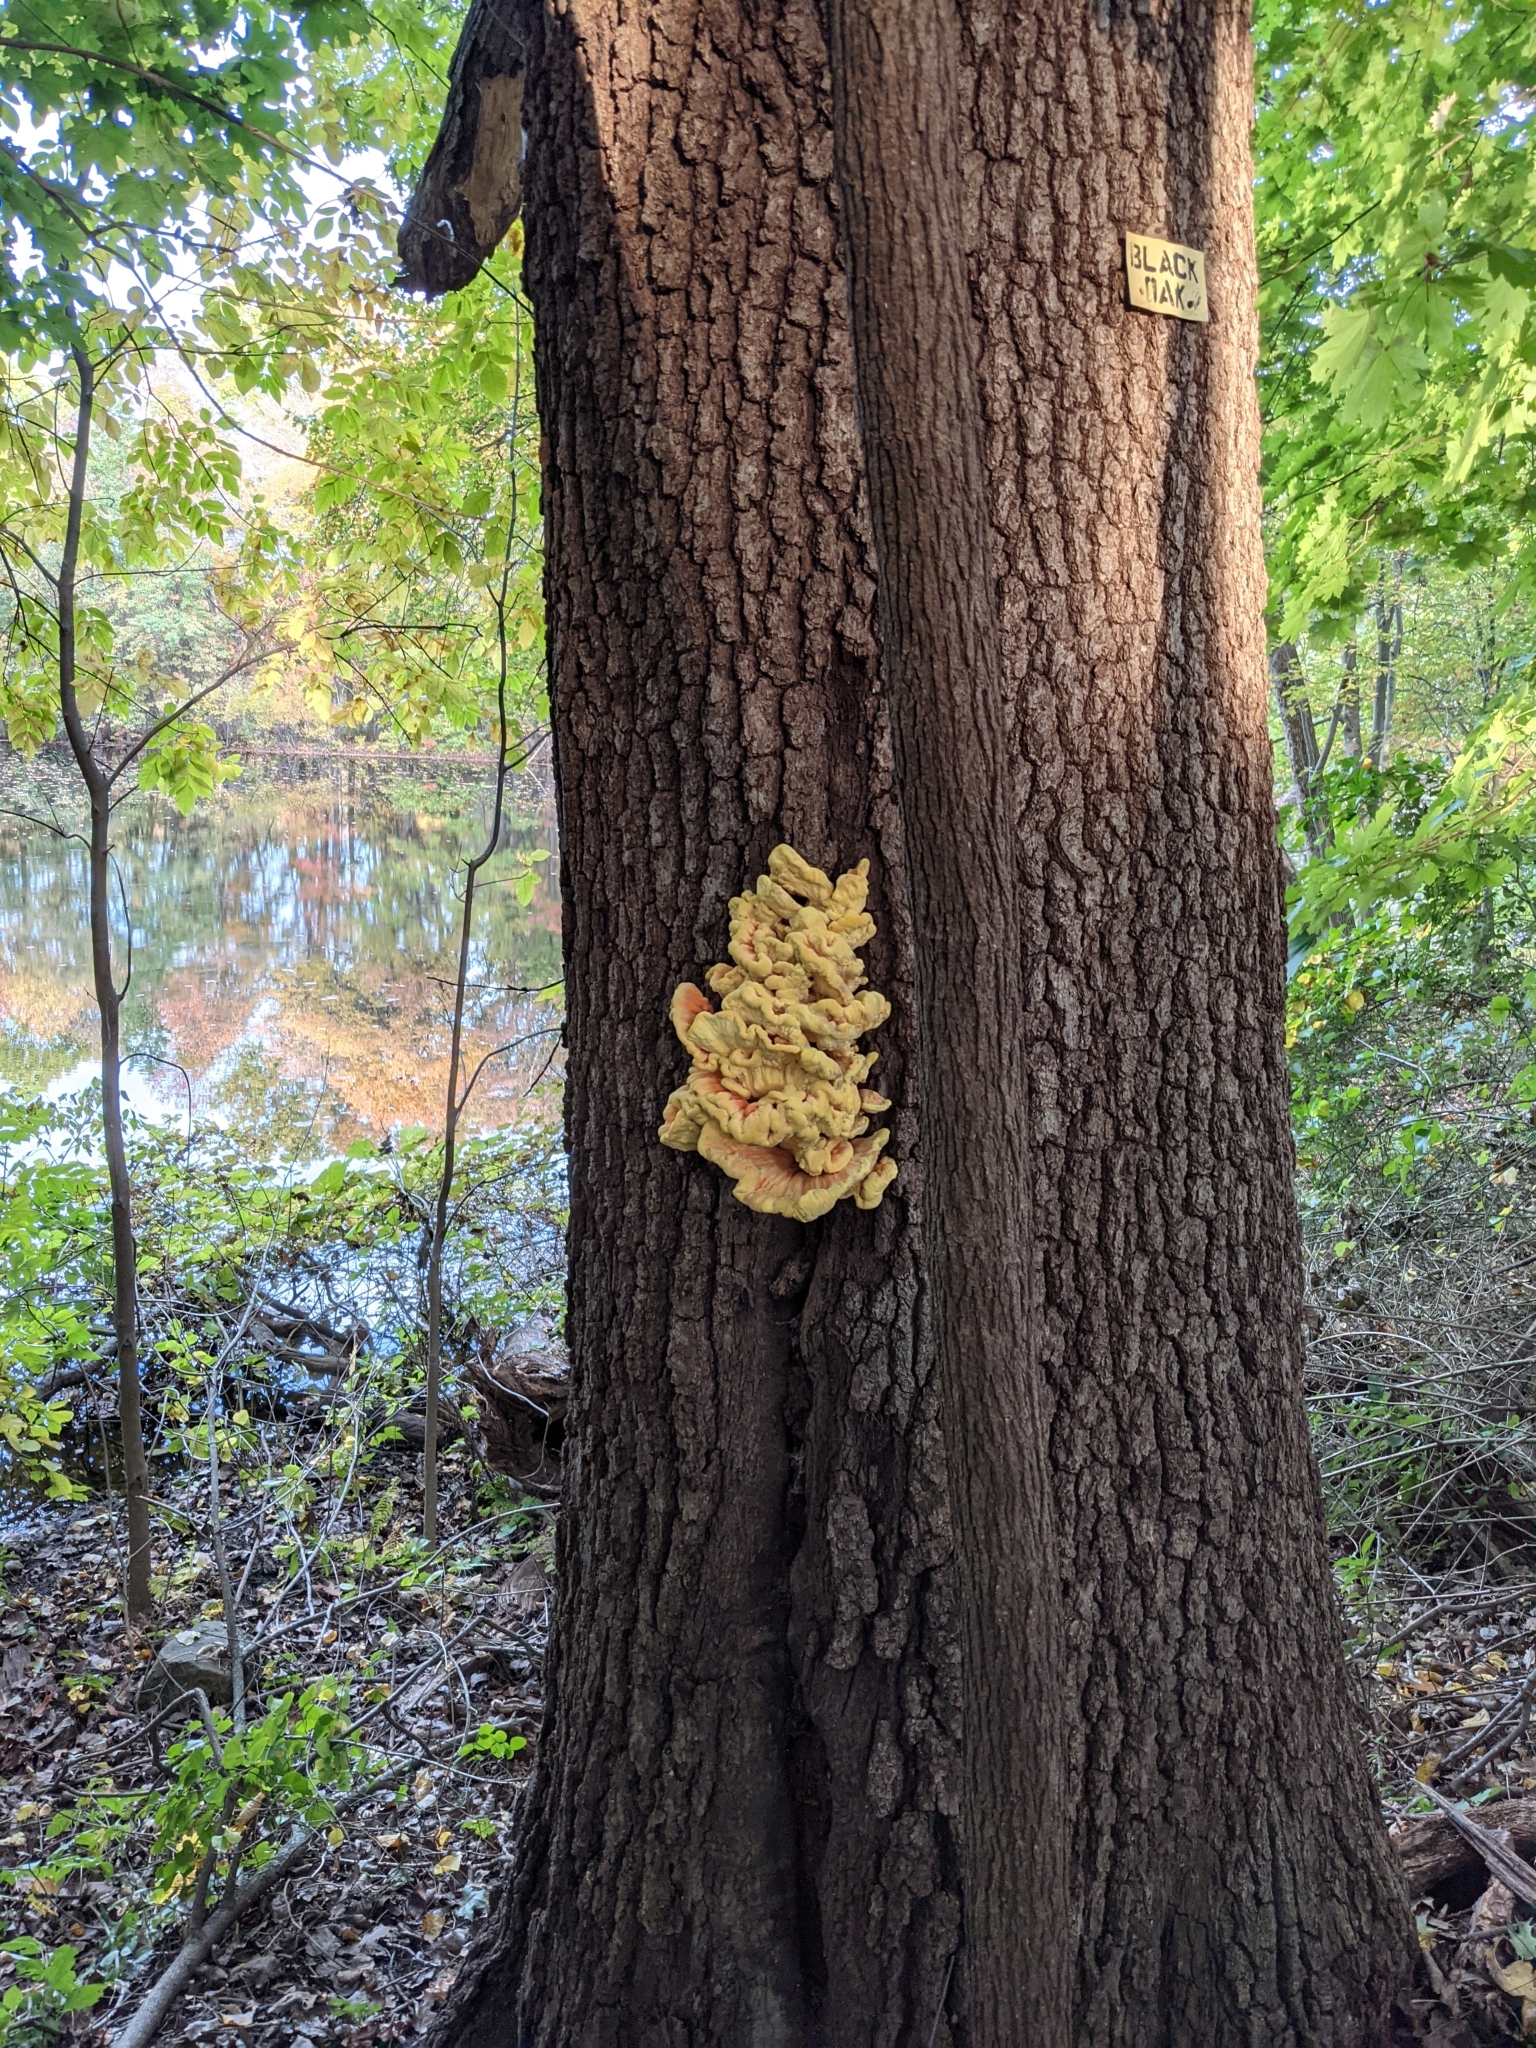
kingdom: Fungi
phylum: Basidiomycota
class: Agaricomycetes
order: Polyporales
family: Laetiporaceae
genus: Laetiporus
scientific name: Laetiporus sulphureus
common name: Chicken of the woods
